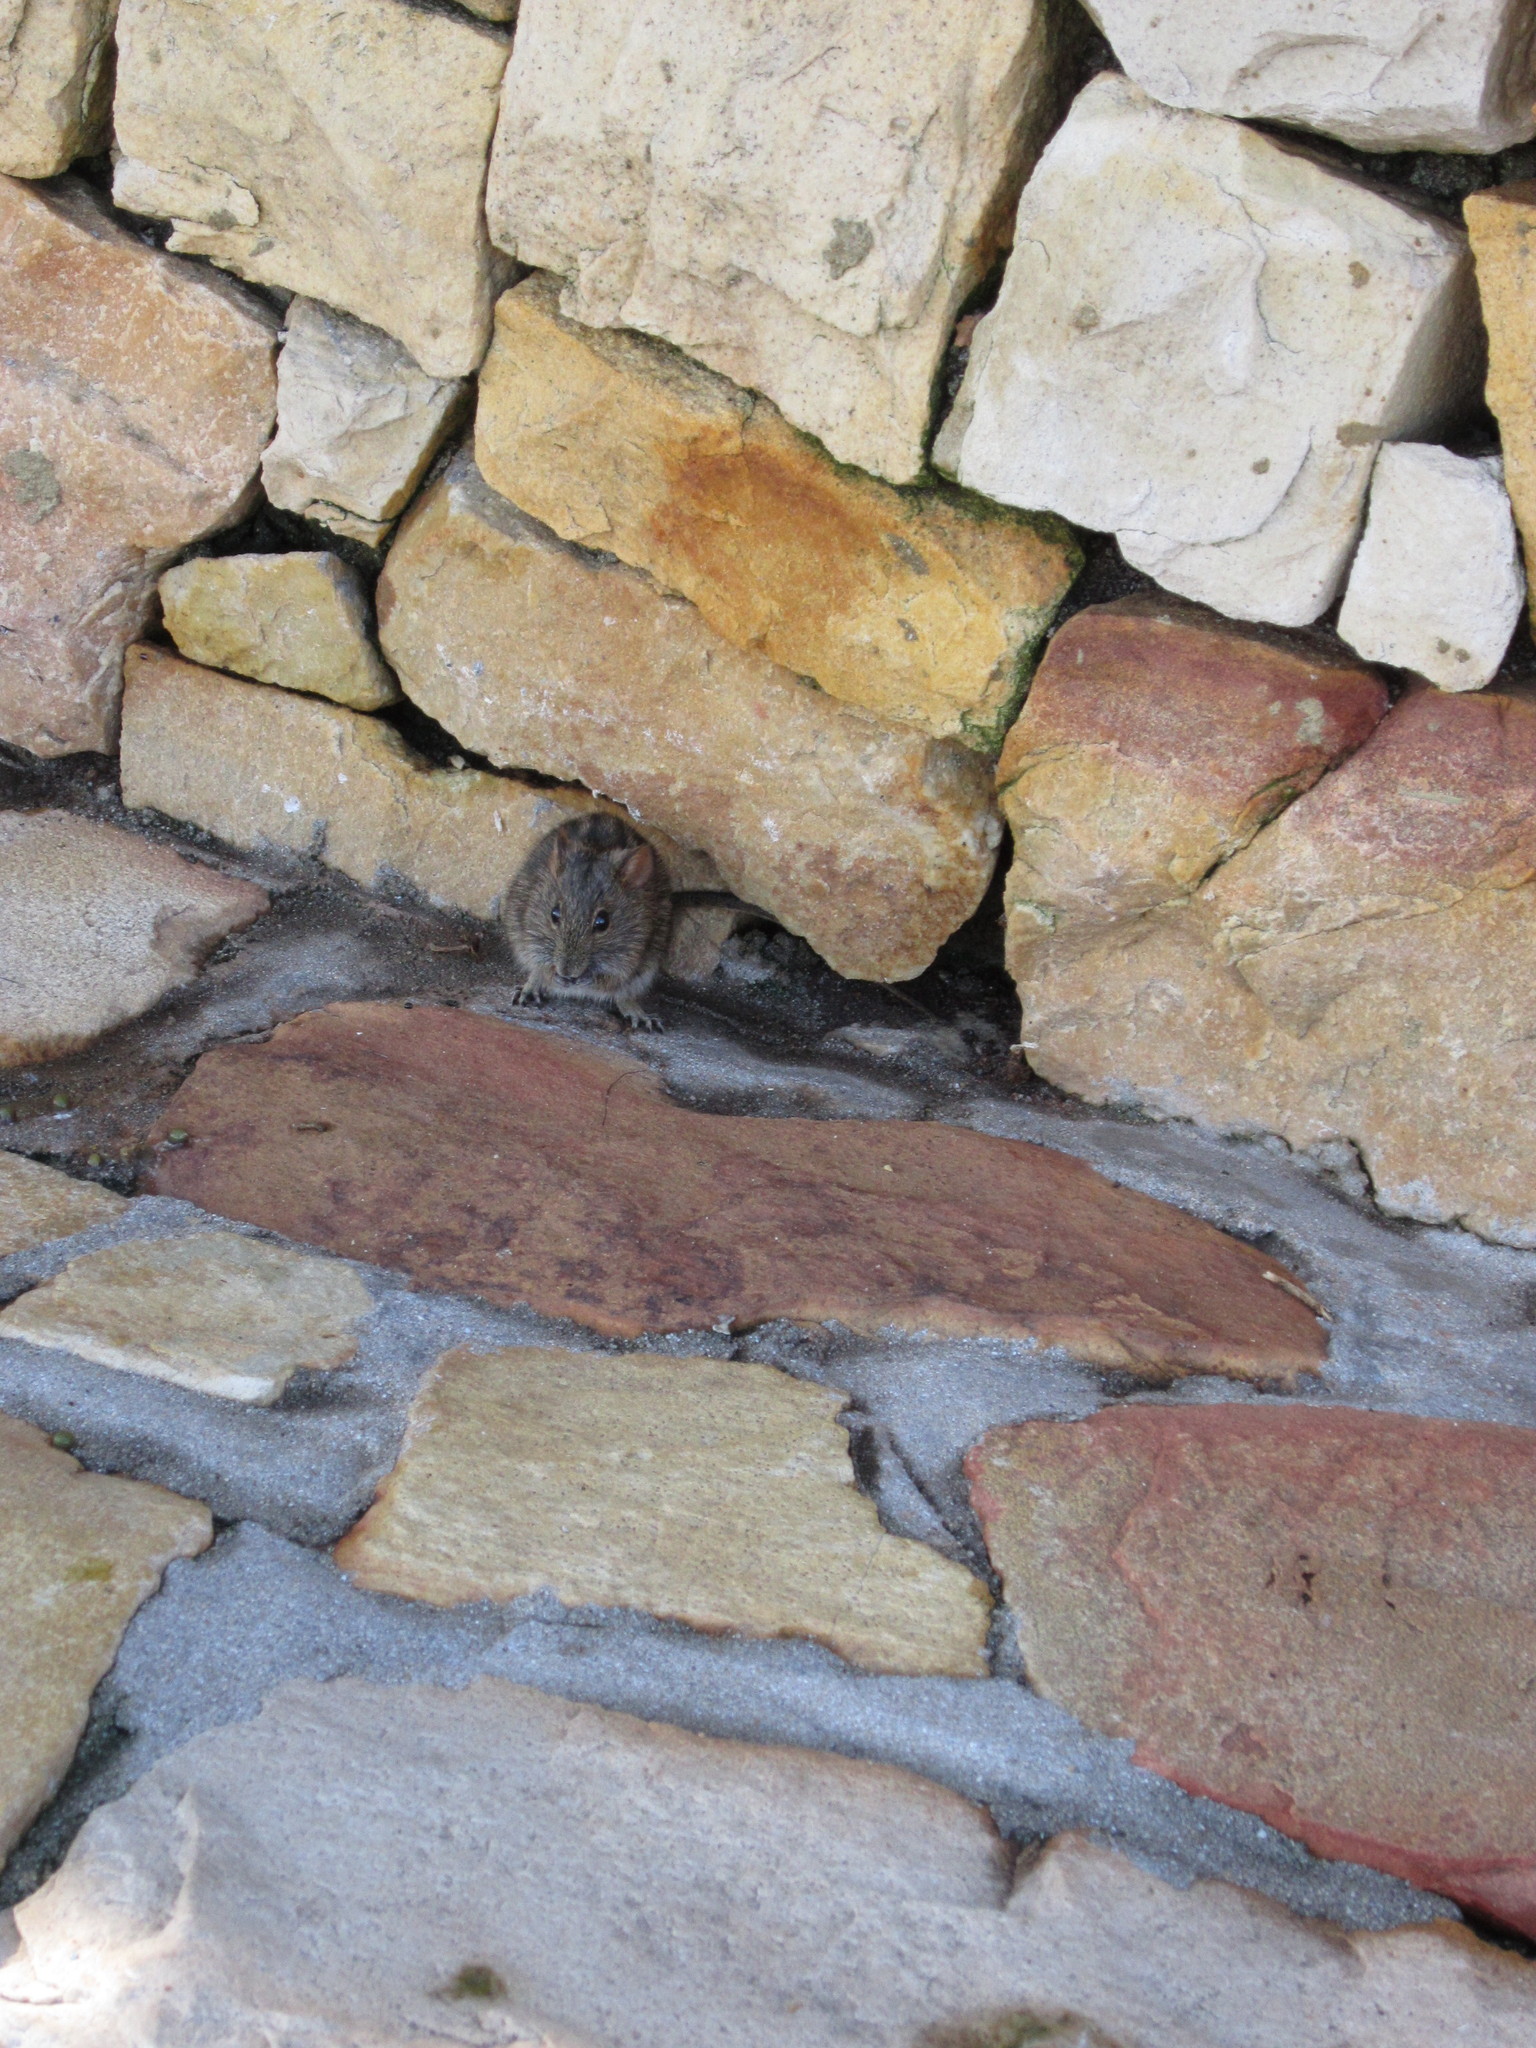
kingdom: Animalia
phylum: Chordata
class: Mammalia
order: Rodentia
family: Muridae
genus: Rhabdomys
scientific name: Rhabdomys pumilio
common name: Xeric four-striped grass rat
